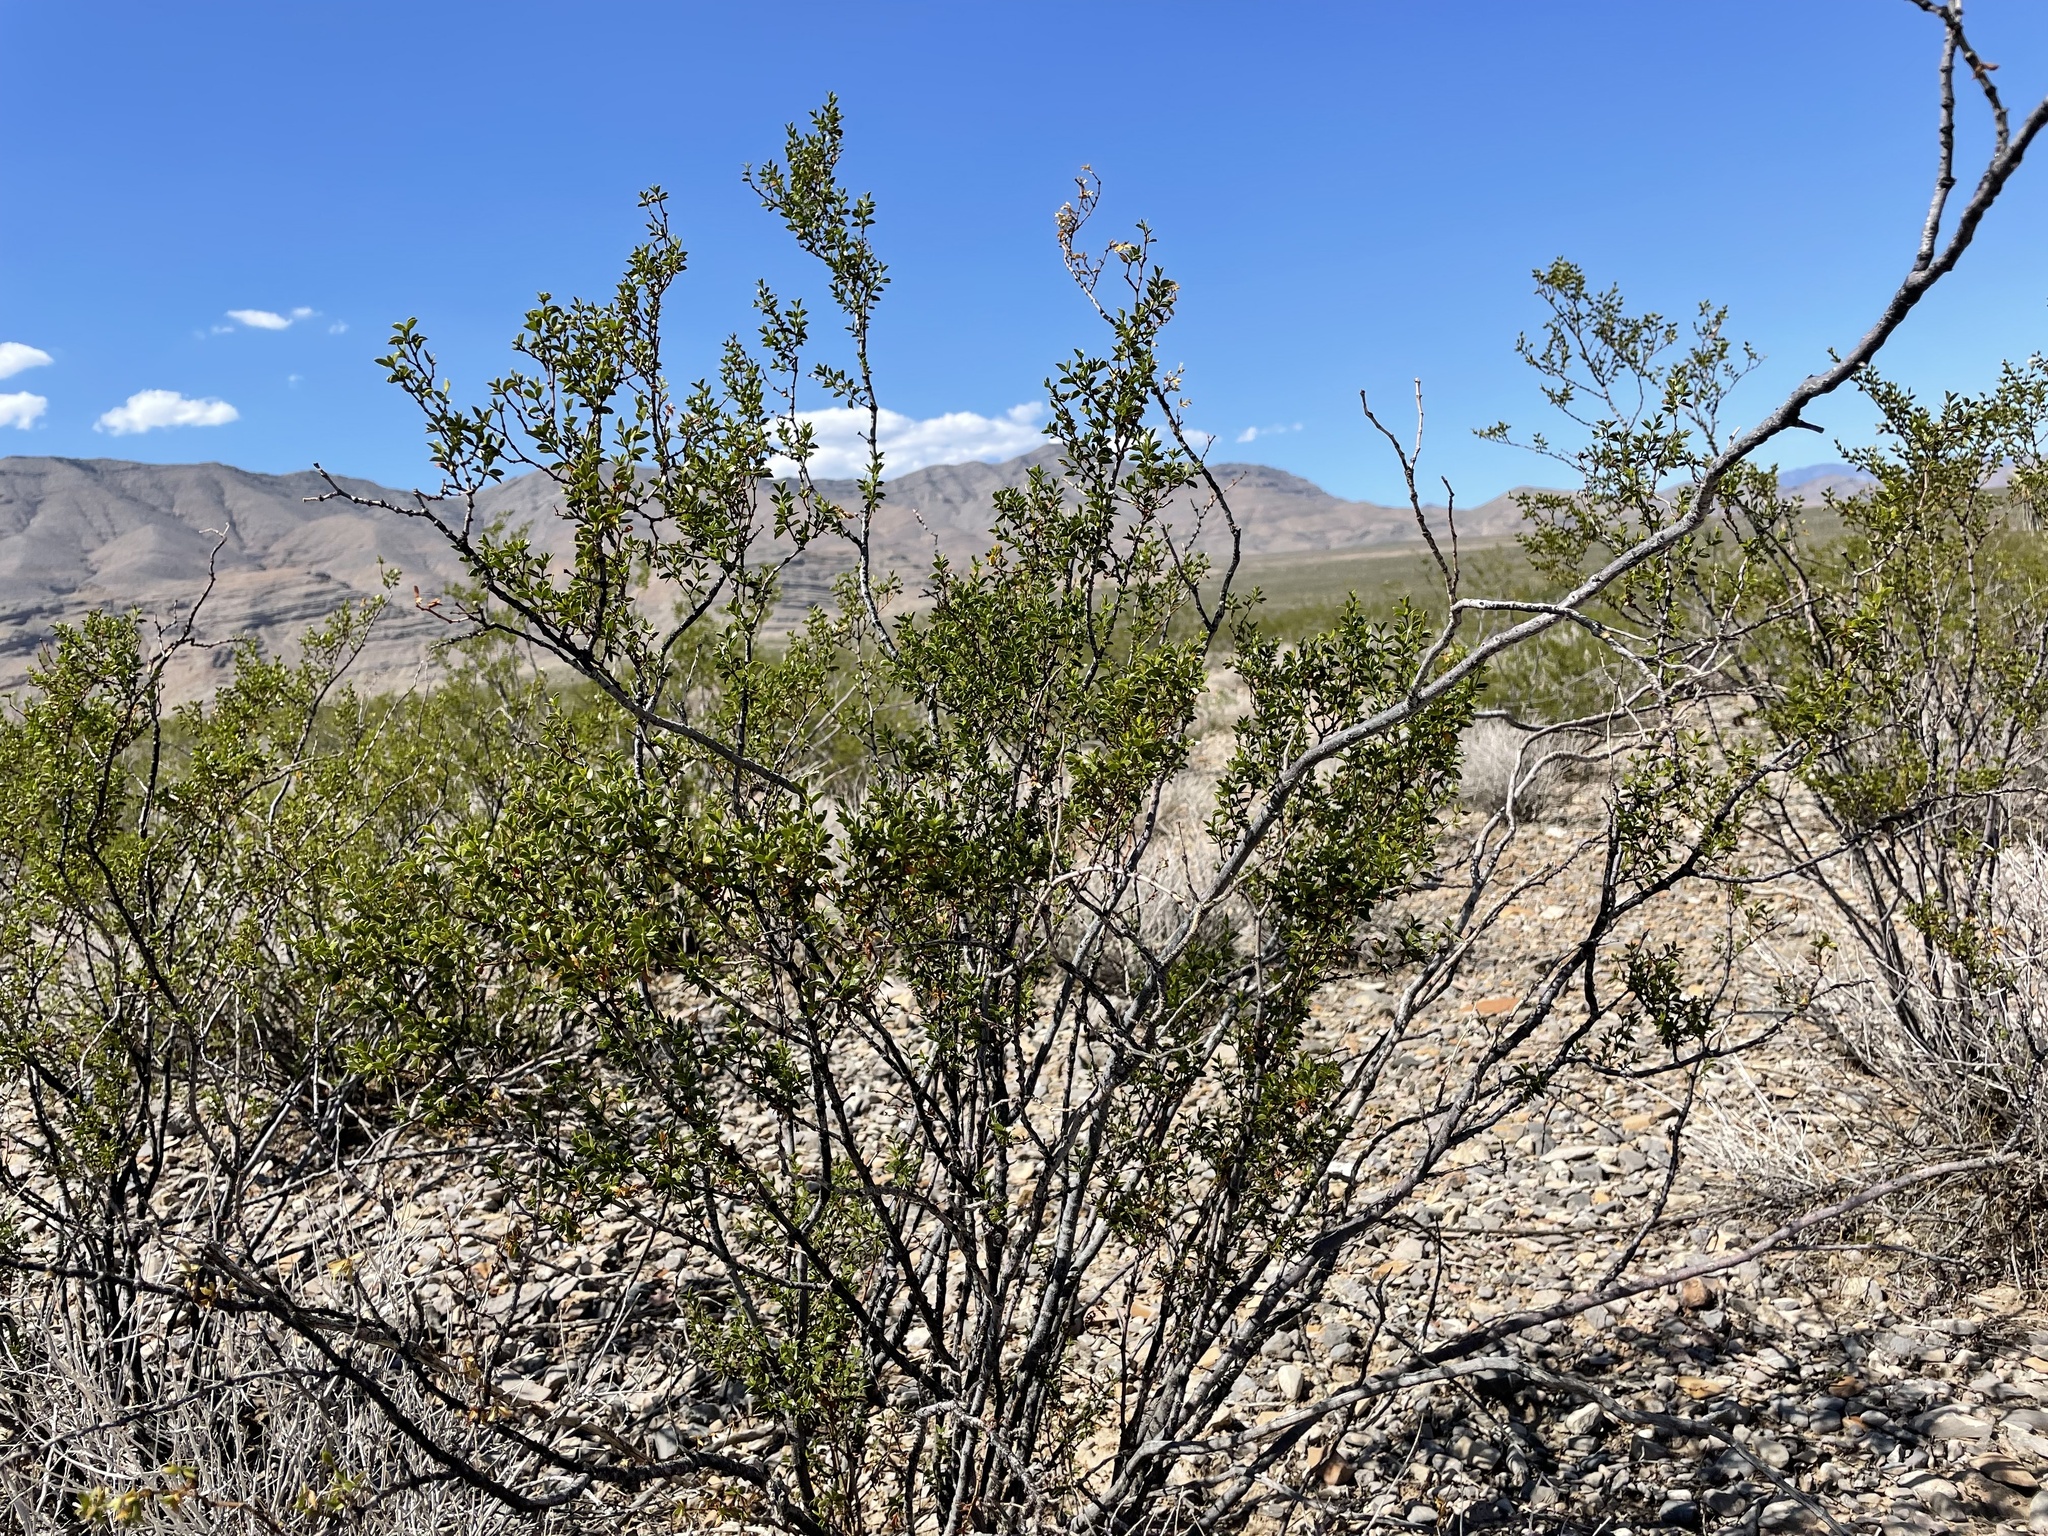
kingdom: Plantae
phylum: Tracheophyta
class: Magnoliopsida
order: Zygophyllales
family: Zygophyllaceae
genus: Larrea
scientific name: Larrea tridentata
